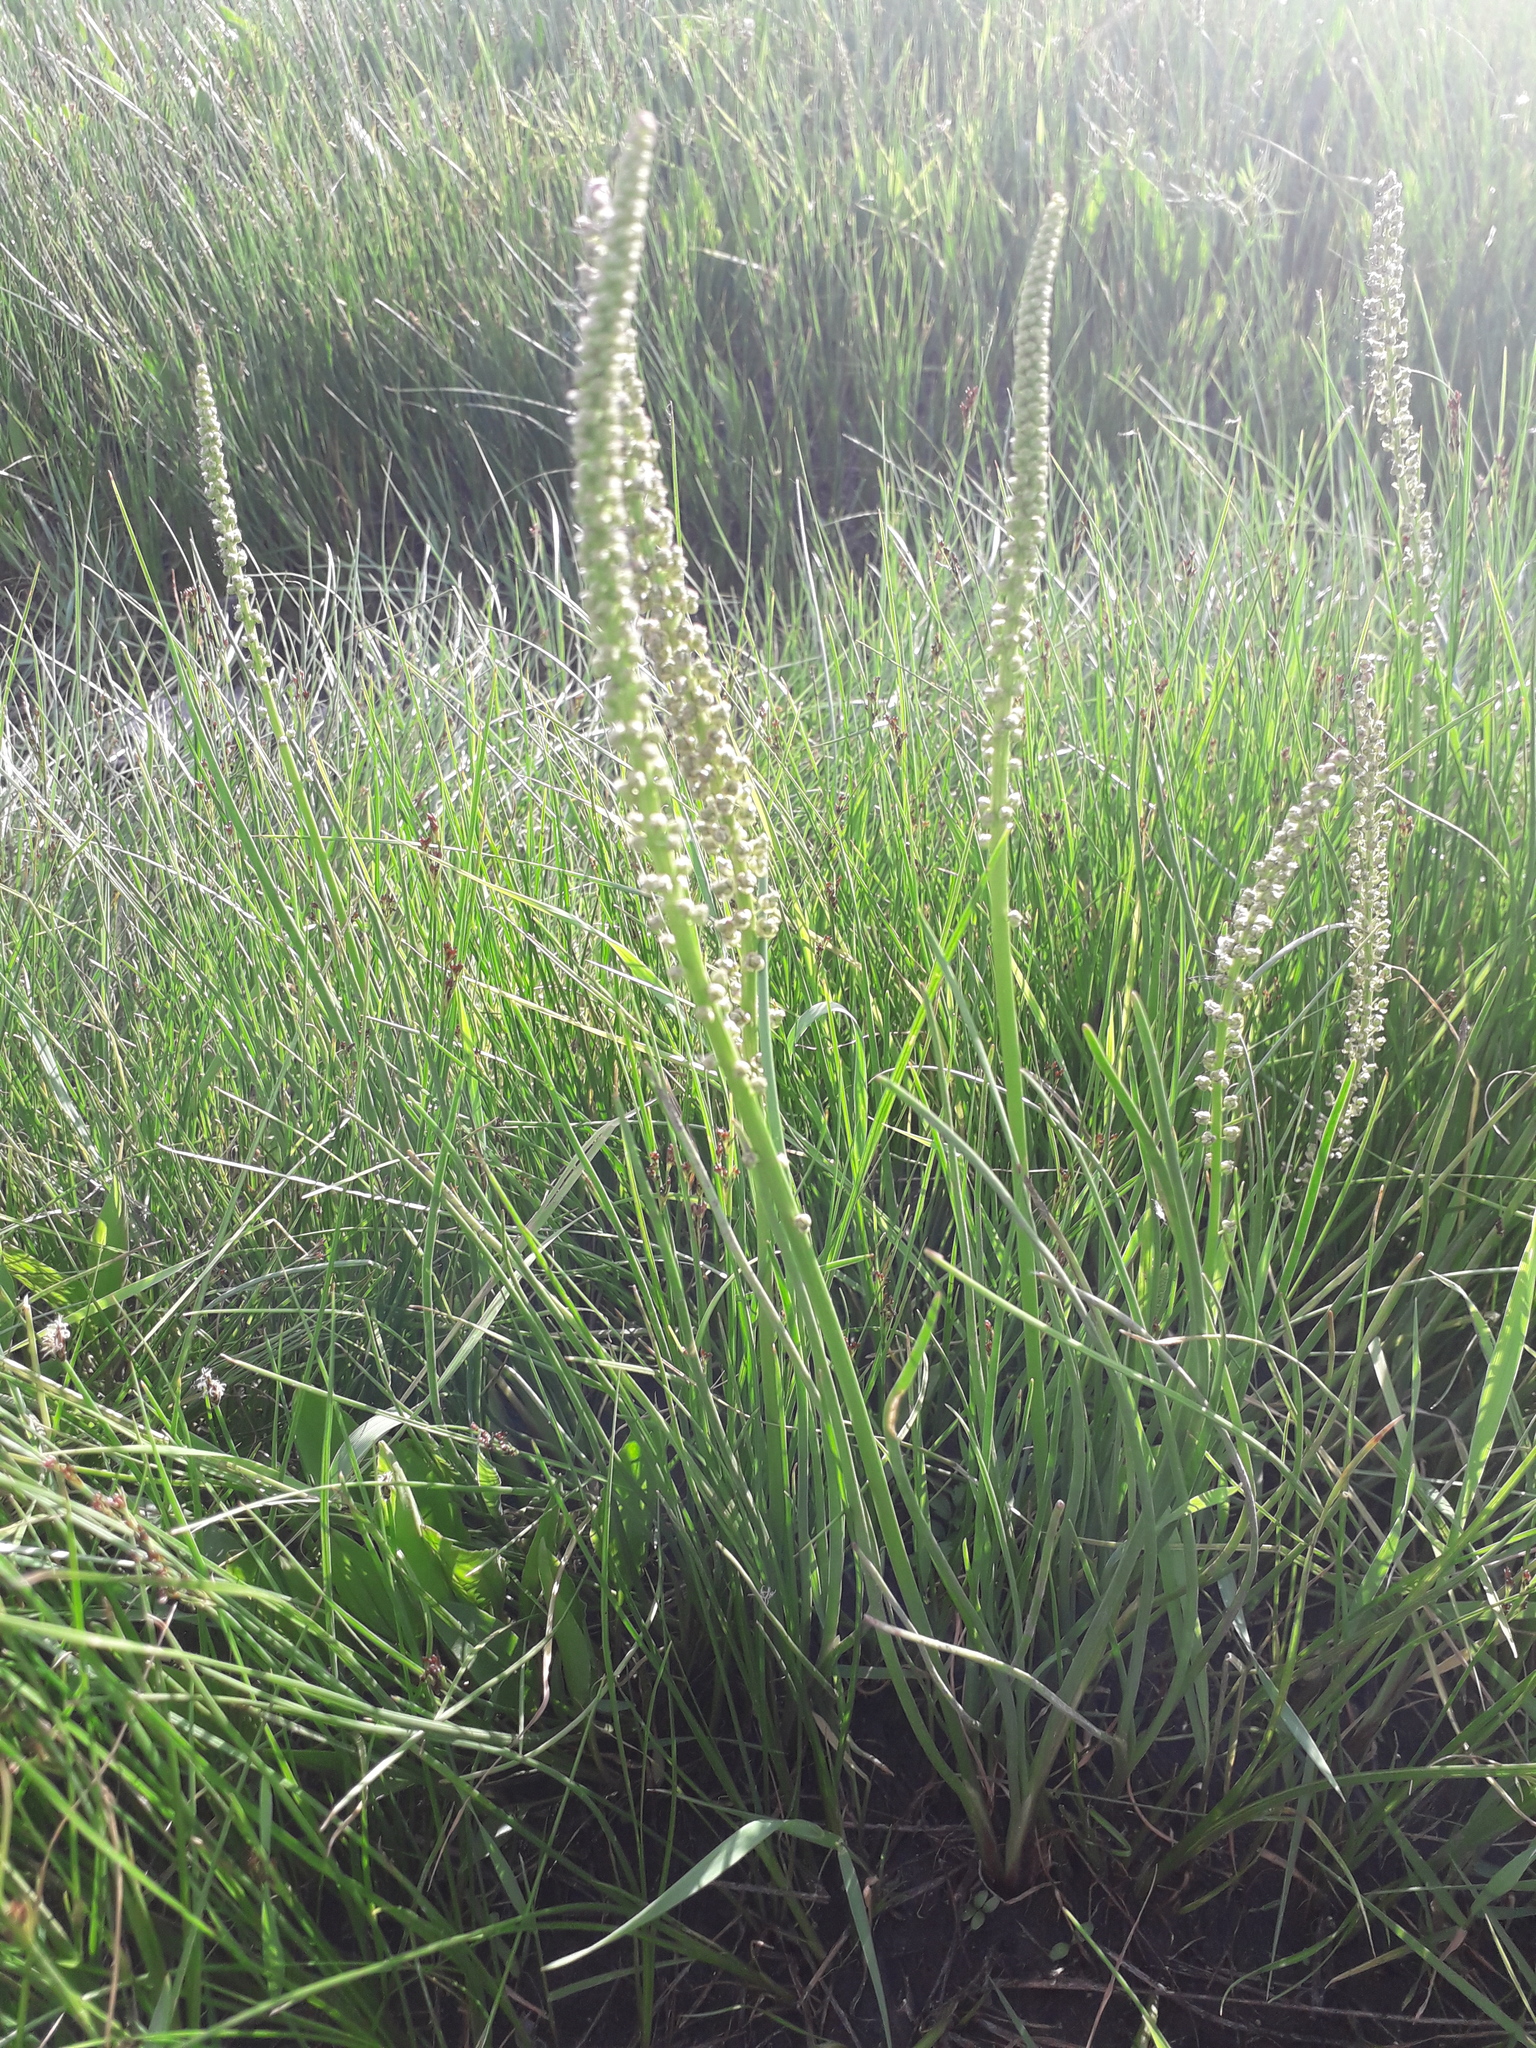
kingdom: Plantae
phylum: Tracheophyta
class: Liliopsida
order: Alismatales
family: Juncaginaceae
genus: Triglochin
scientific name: Triglochin maritima
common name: Sea arrowgrass
